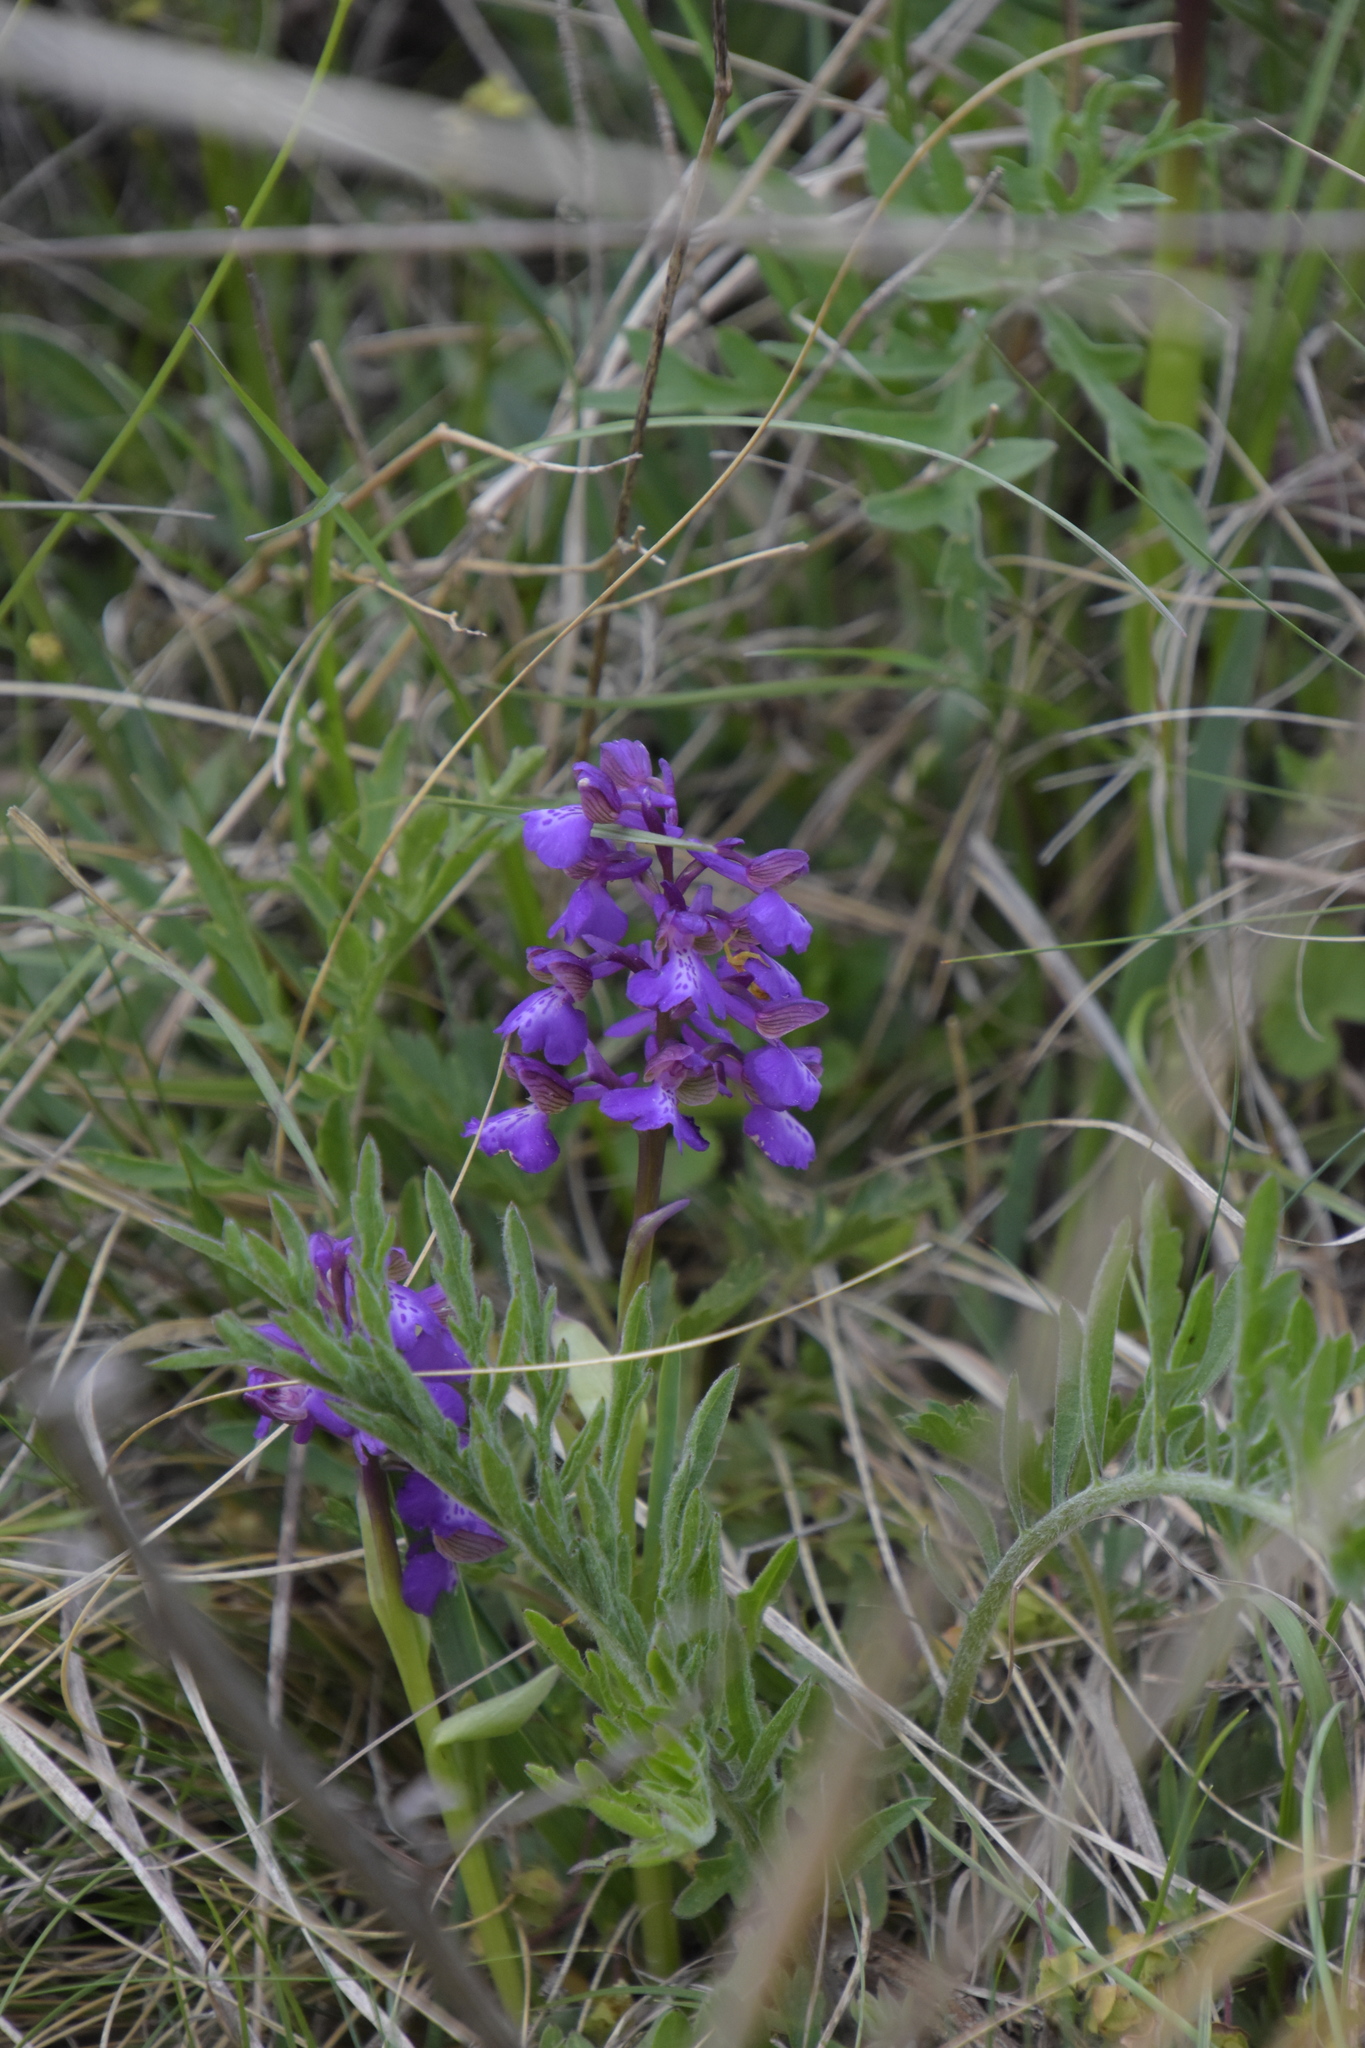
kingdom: Plantae
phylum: Tracheophyta
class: Liliopsida
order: Asparagales
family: Orchidaceae
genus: Anacamptis
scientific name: Anacamptis morio
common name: Green-winged orchid
